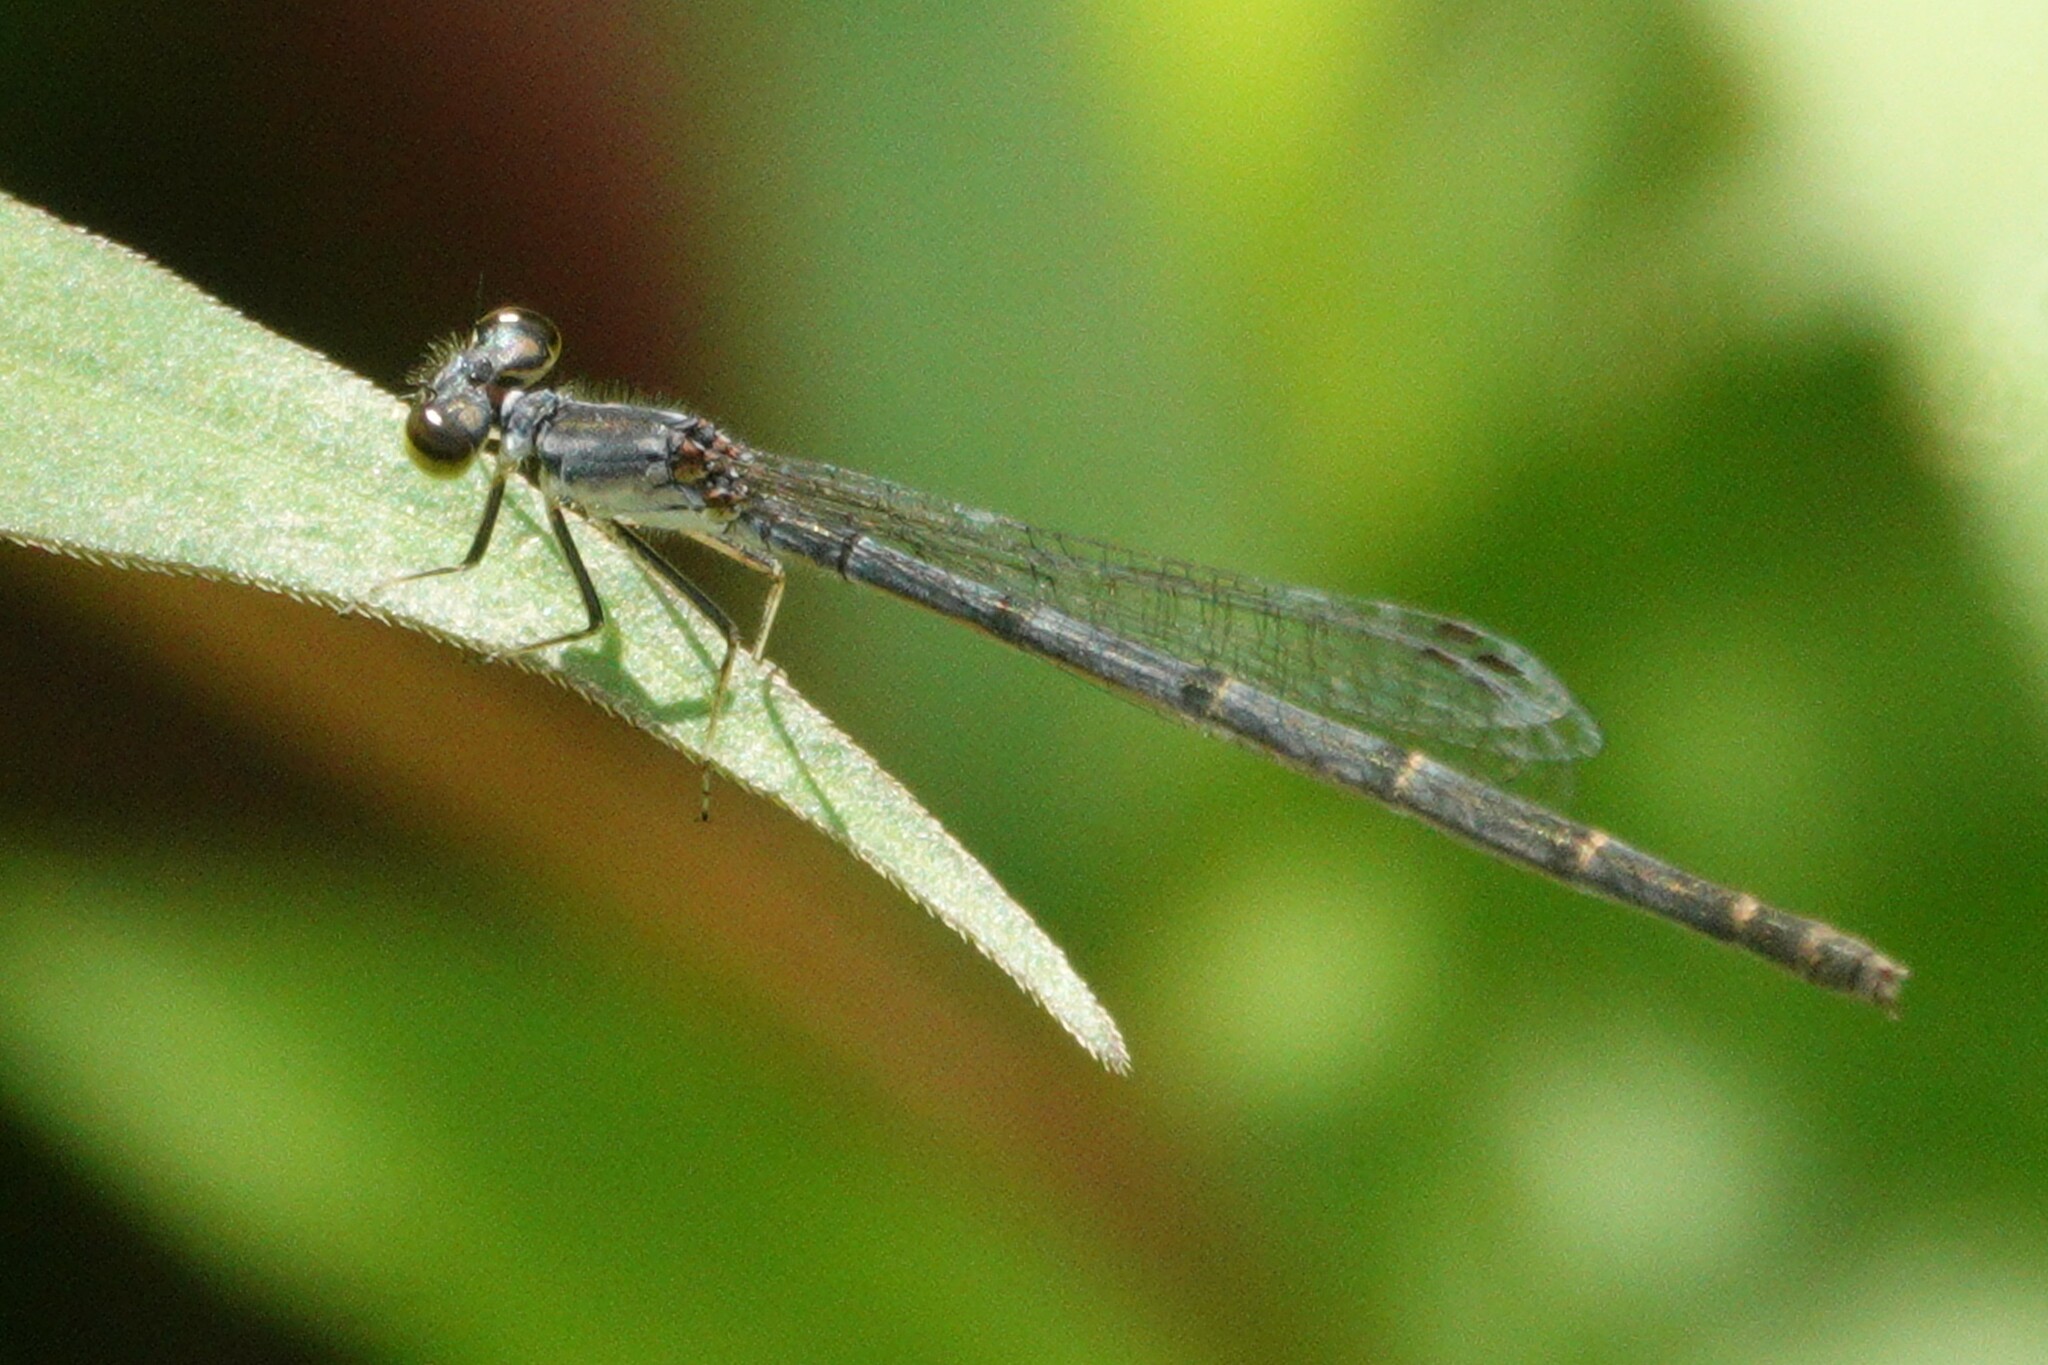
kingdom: Animalia
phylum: Arthropoda
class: Insecta
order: Odonata
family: Coenagrionidae
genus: Ischnura
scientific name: Ischnura posita
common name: Fragile forktail
